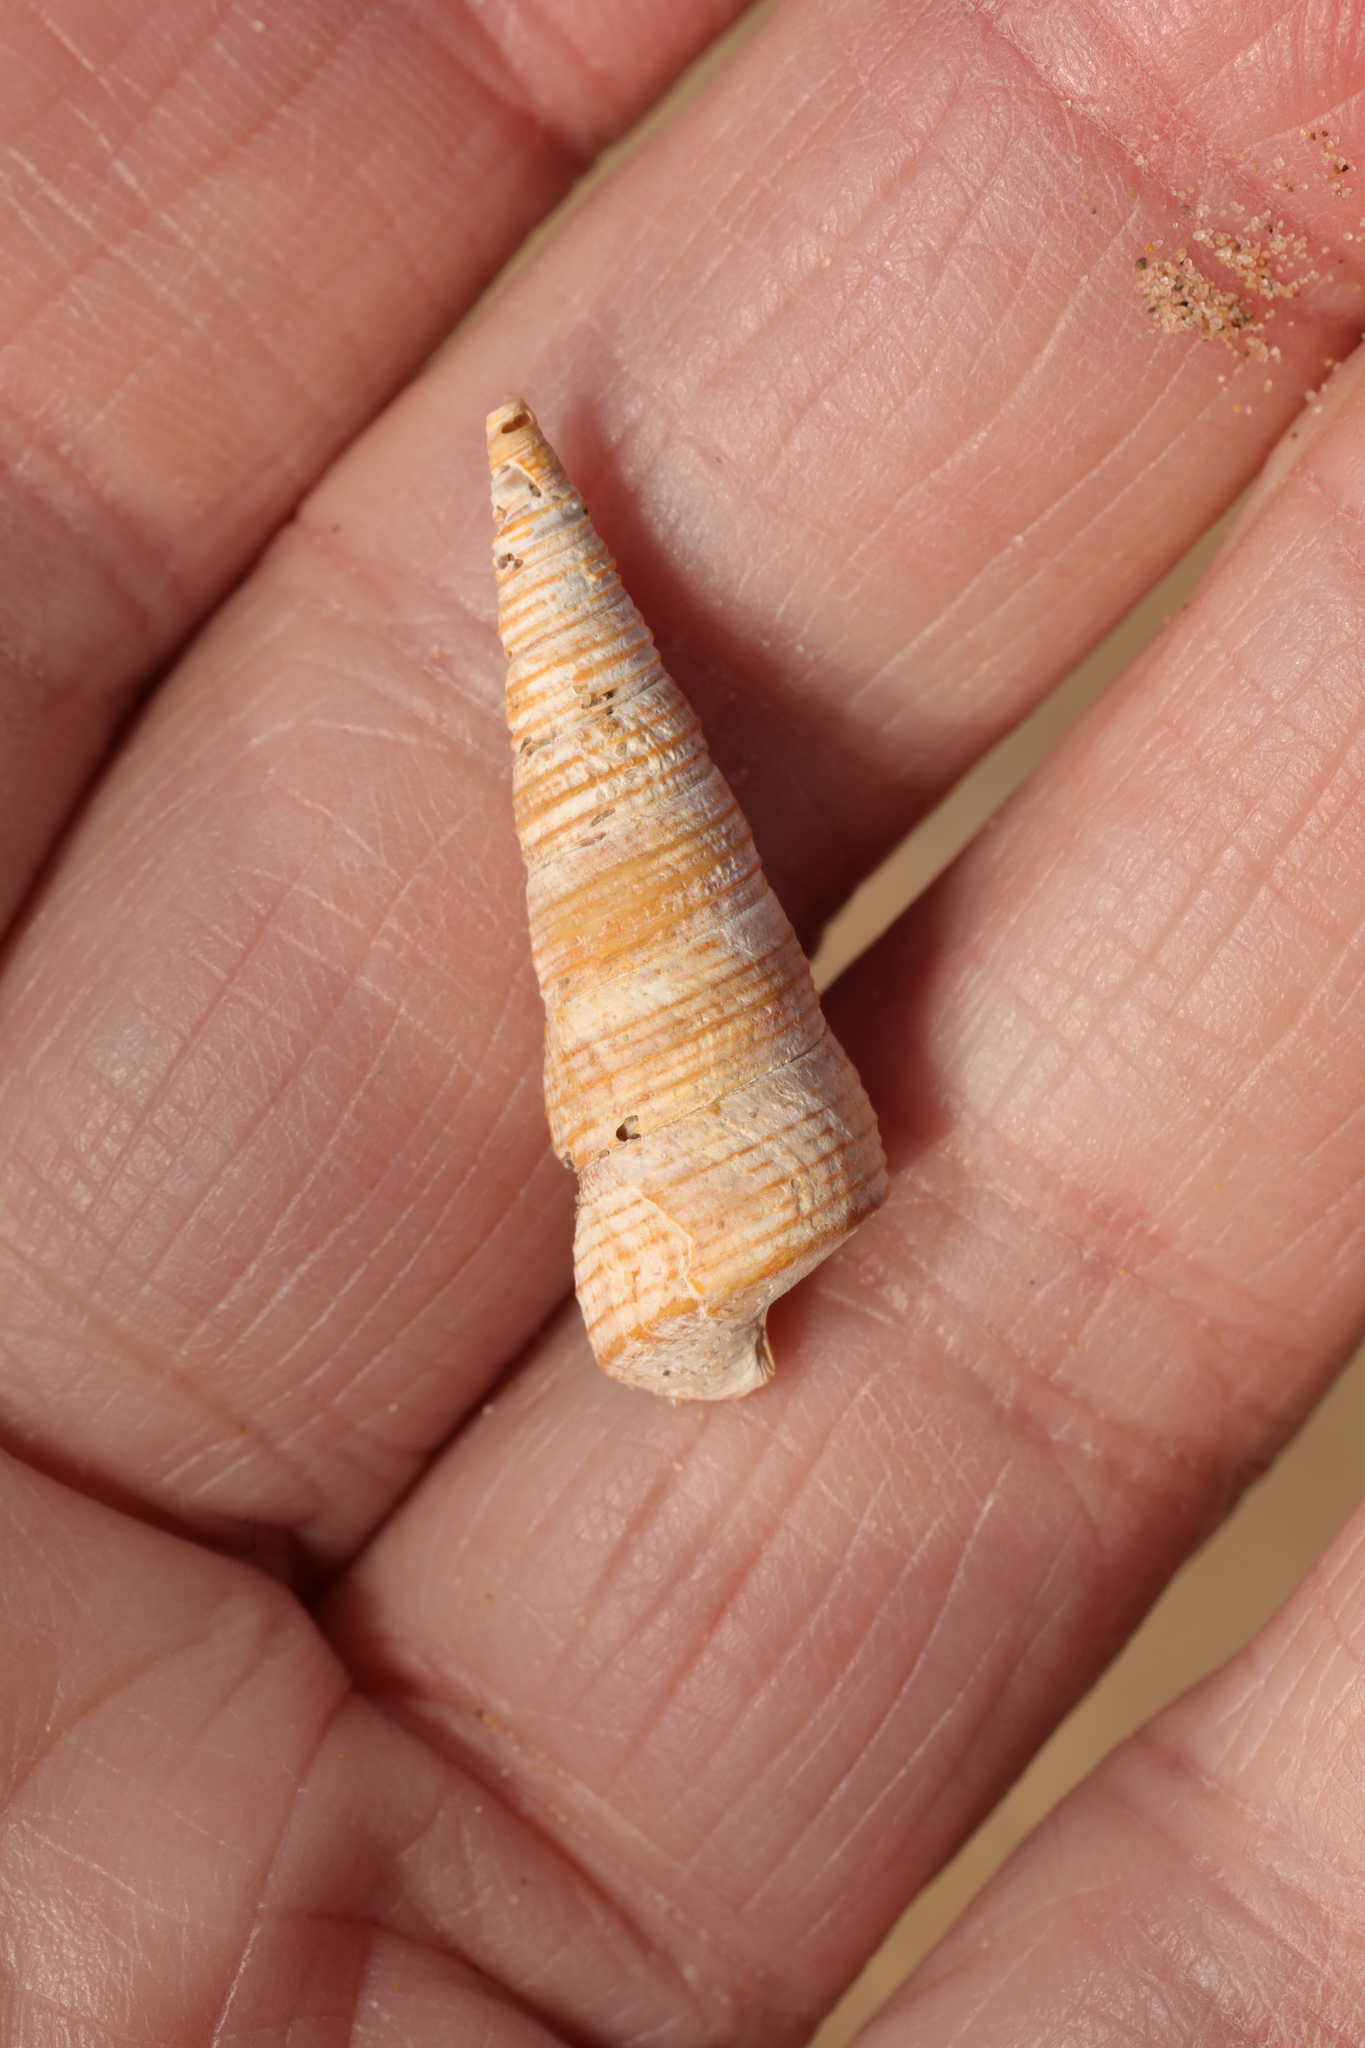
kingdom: Animalia
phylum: Mollusca
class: Gastropoda
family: Turritellidae
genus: Turritellinella
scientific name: Turritellinella tricarinata
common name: Auger shell
